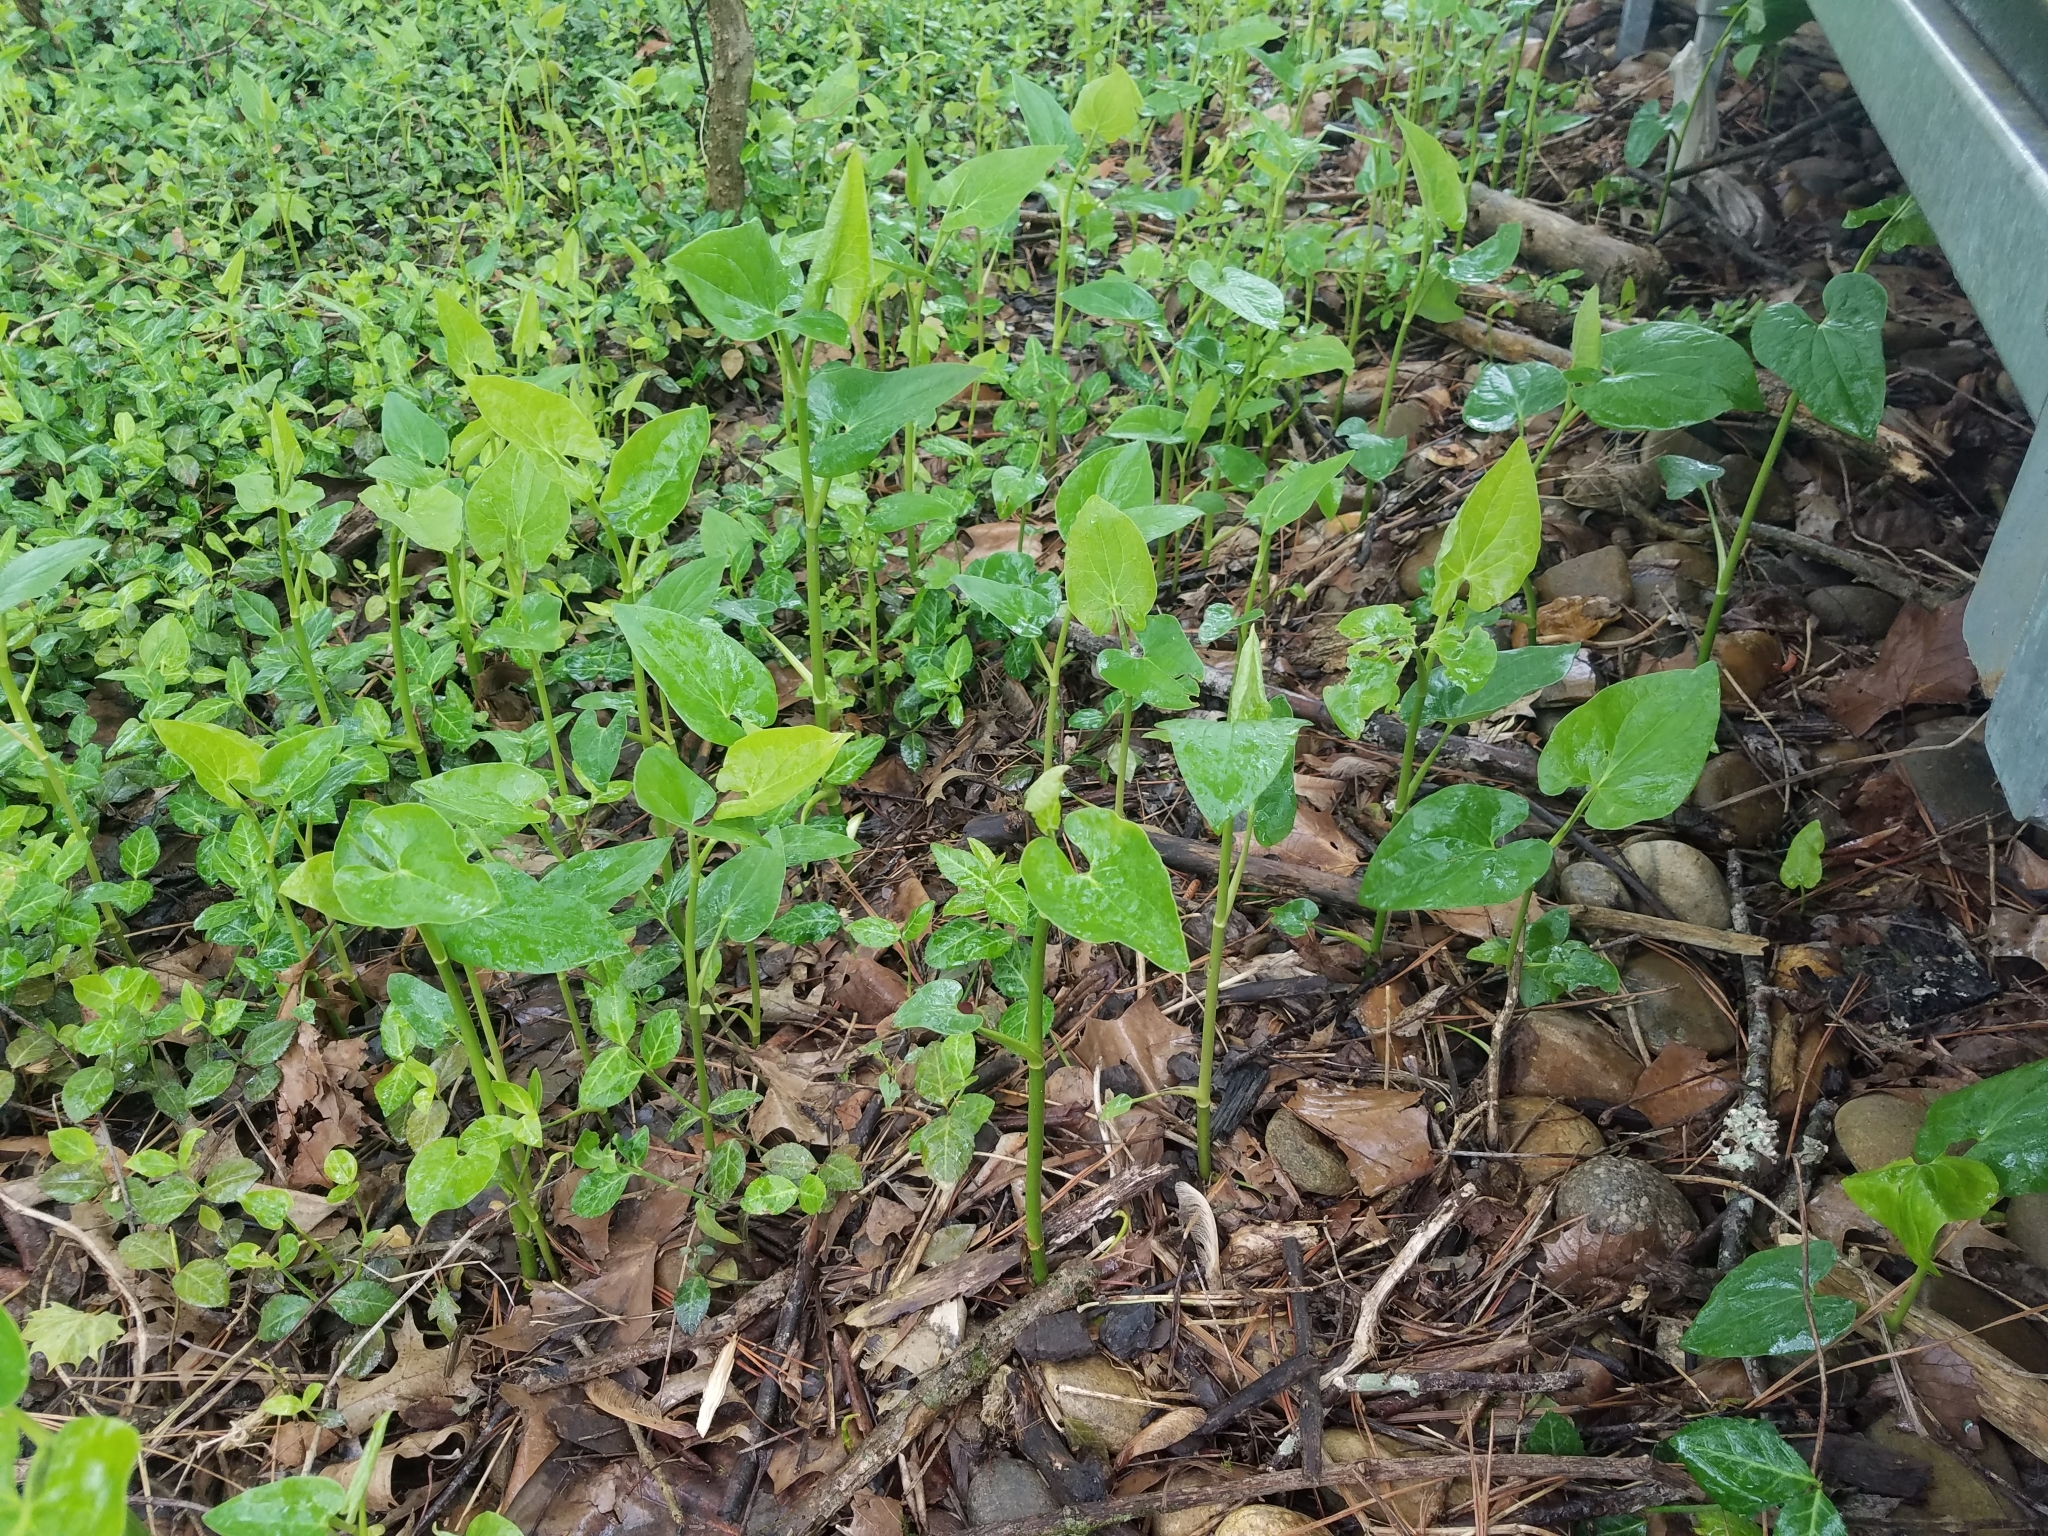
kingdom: Plantae
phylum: Tracheophyta
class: Magnoliopsida
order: Piperales
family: Saururaceae
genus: Saururus
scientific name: Saururus cernuus
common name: Lizard's-tail
